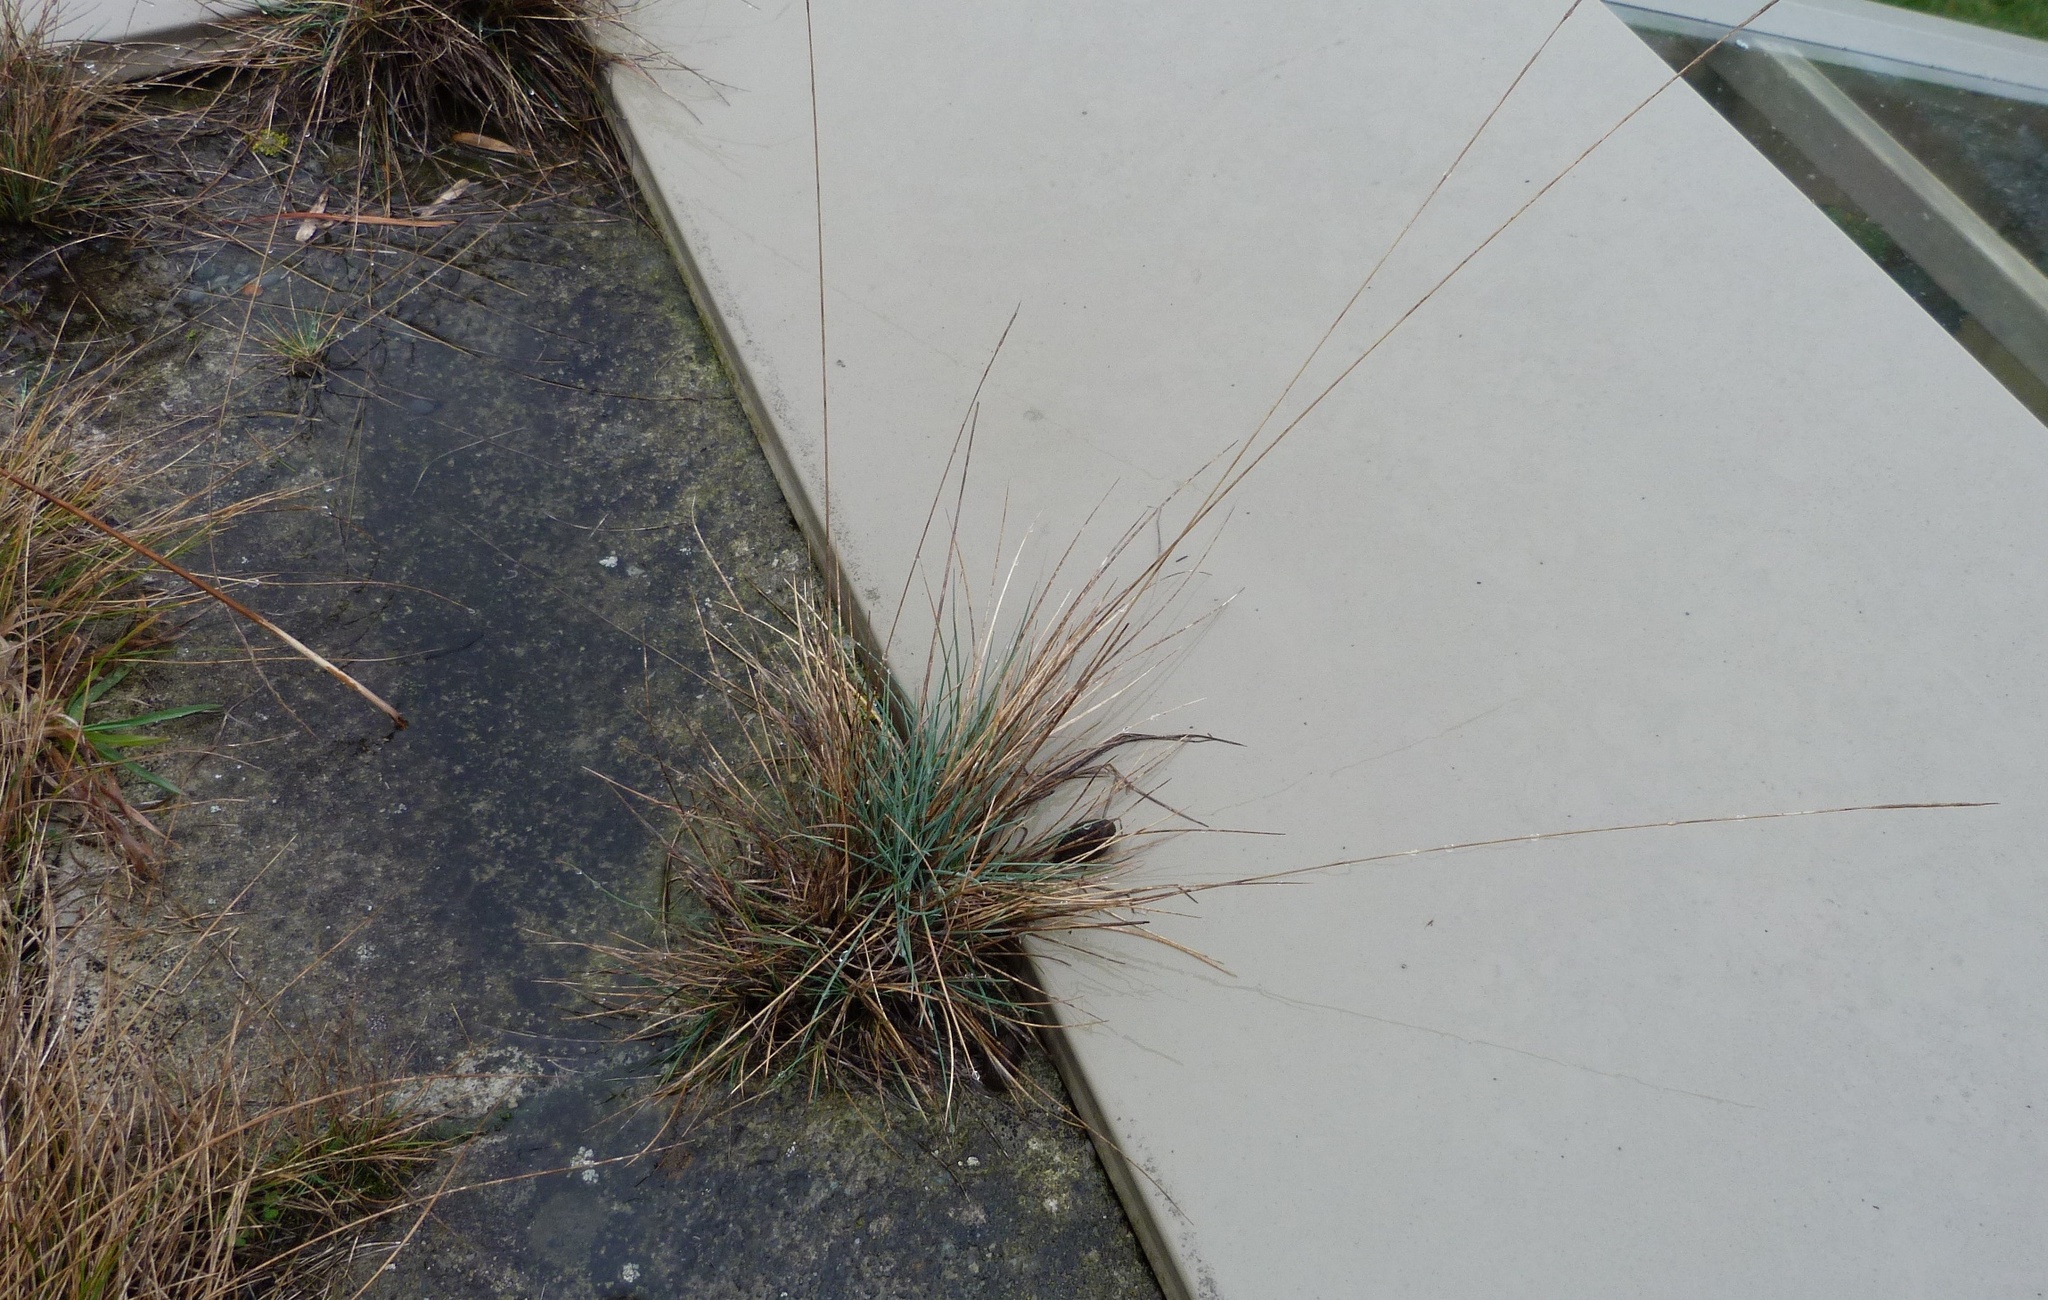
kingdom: Plantae
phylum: Tracheophyta
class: Liliopsida
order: Poales
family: Poaceae
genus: Festuca
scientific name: Festuca actae
